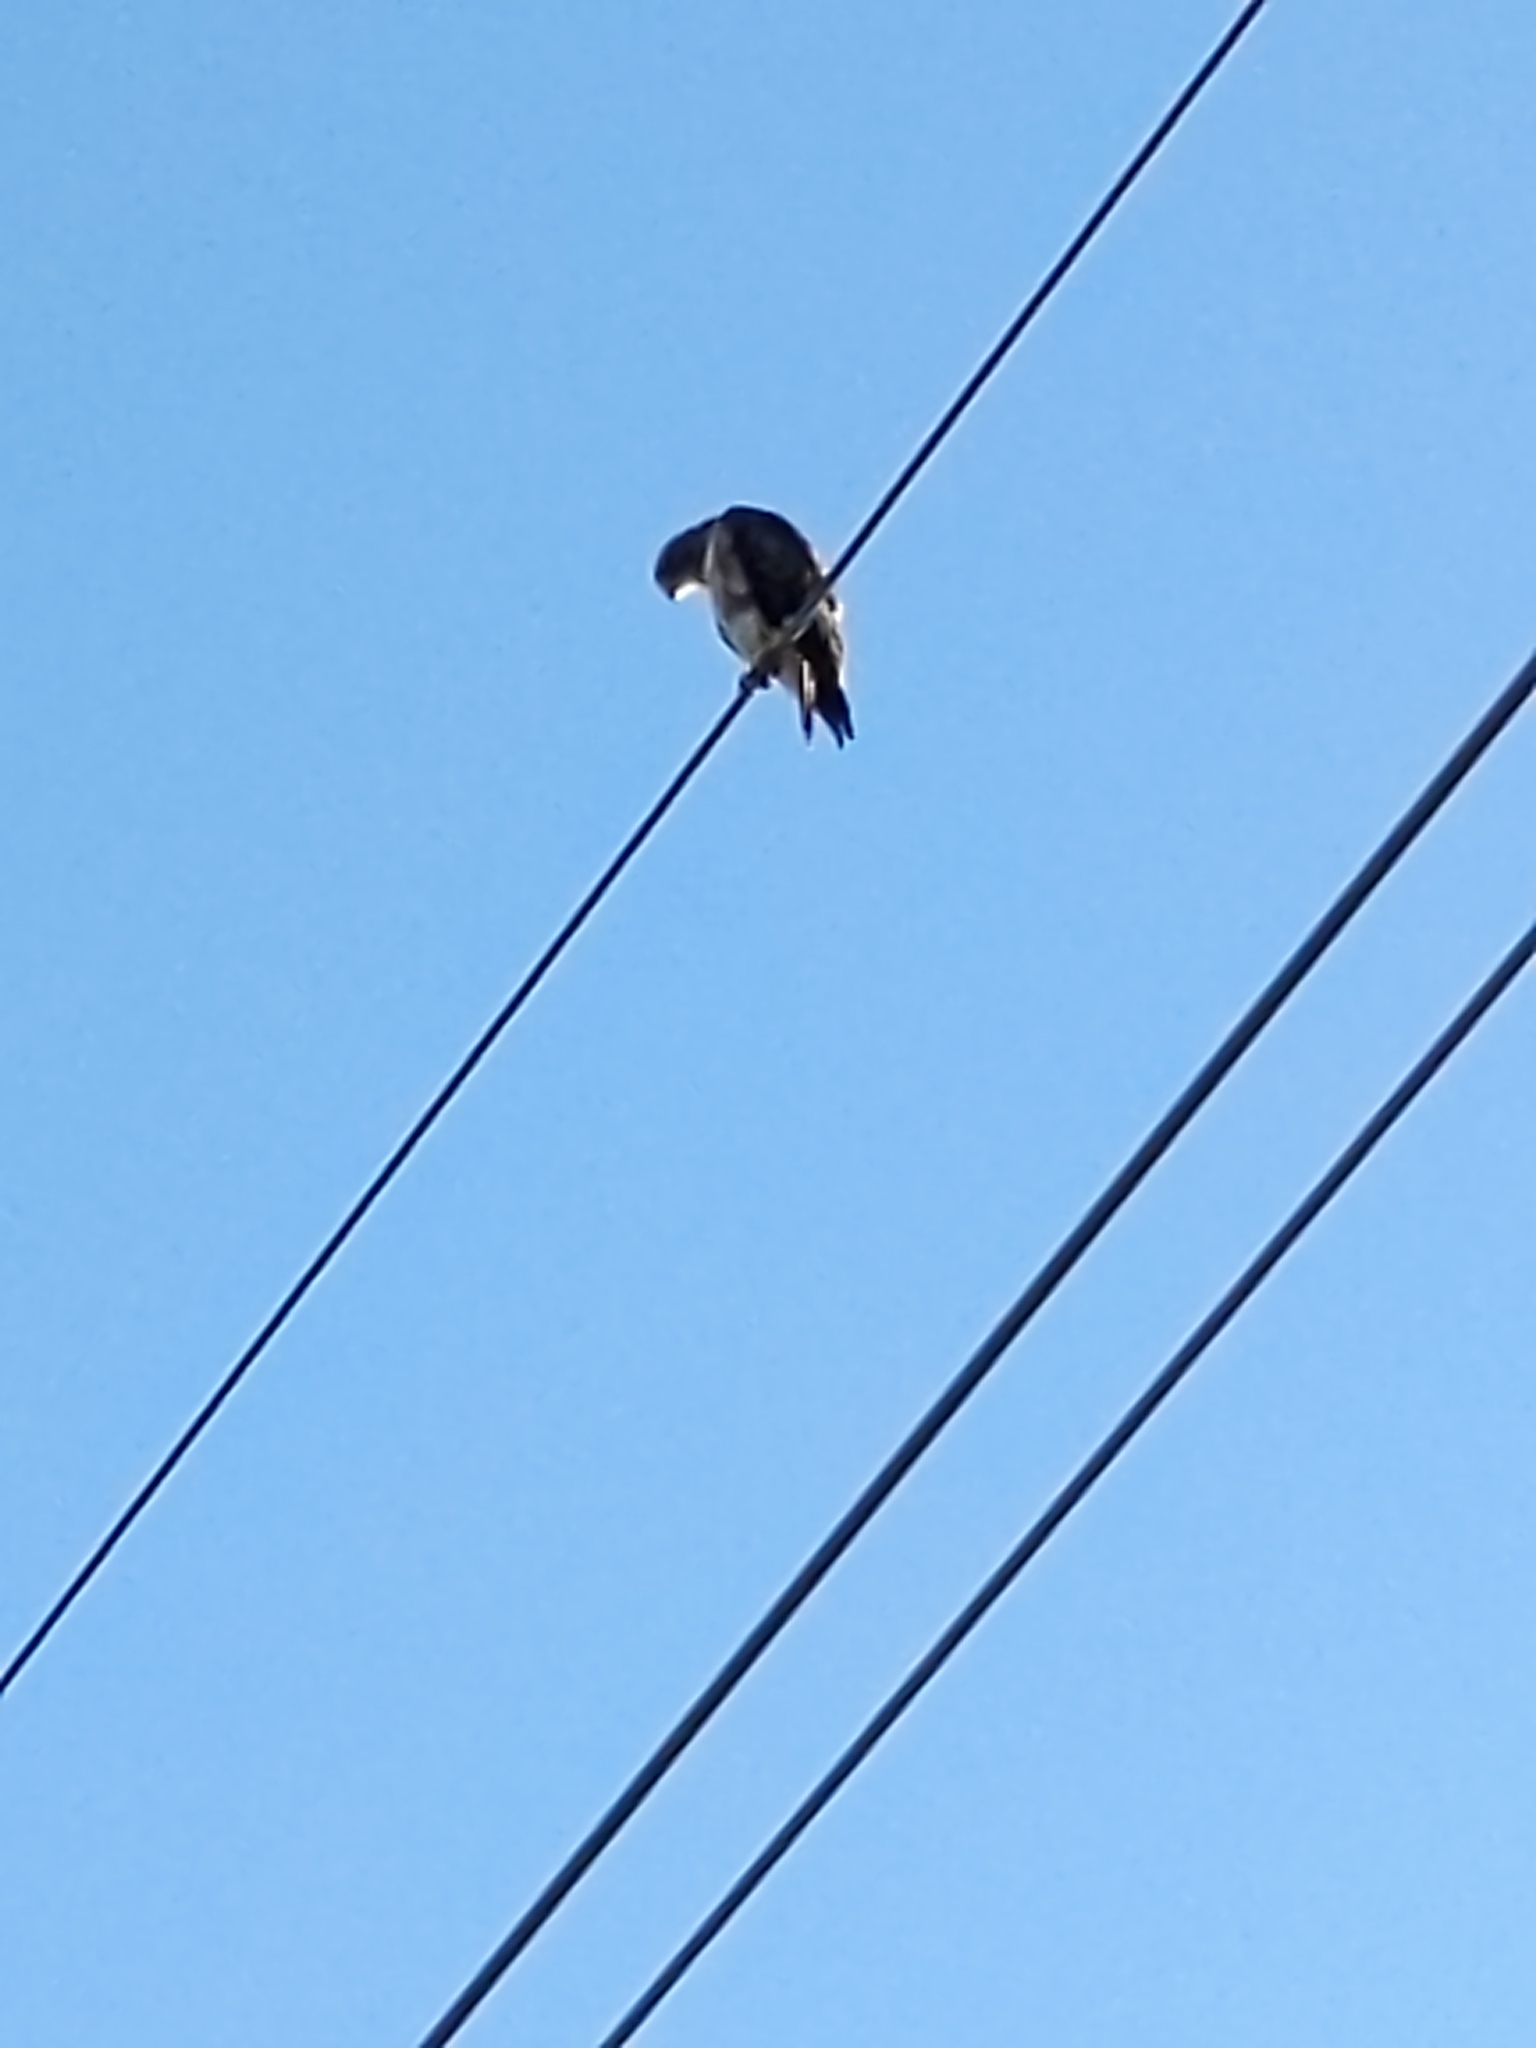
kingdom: Animalia
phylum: Chordata
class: Aves
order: Accipitriformes
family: Accipitridae
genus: Buteo
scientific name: Buteo swainsoni
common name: Swainson's hawk
